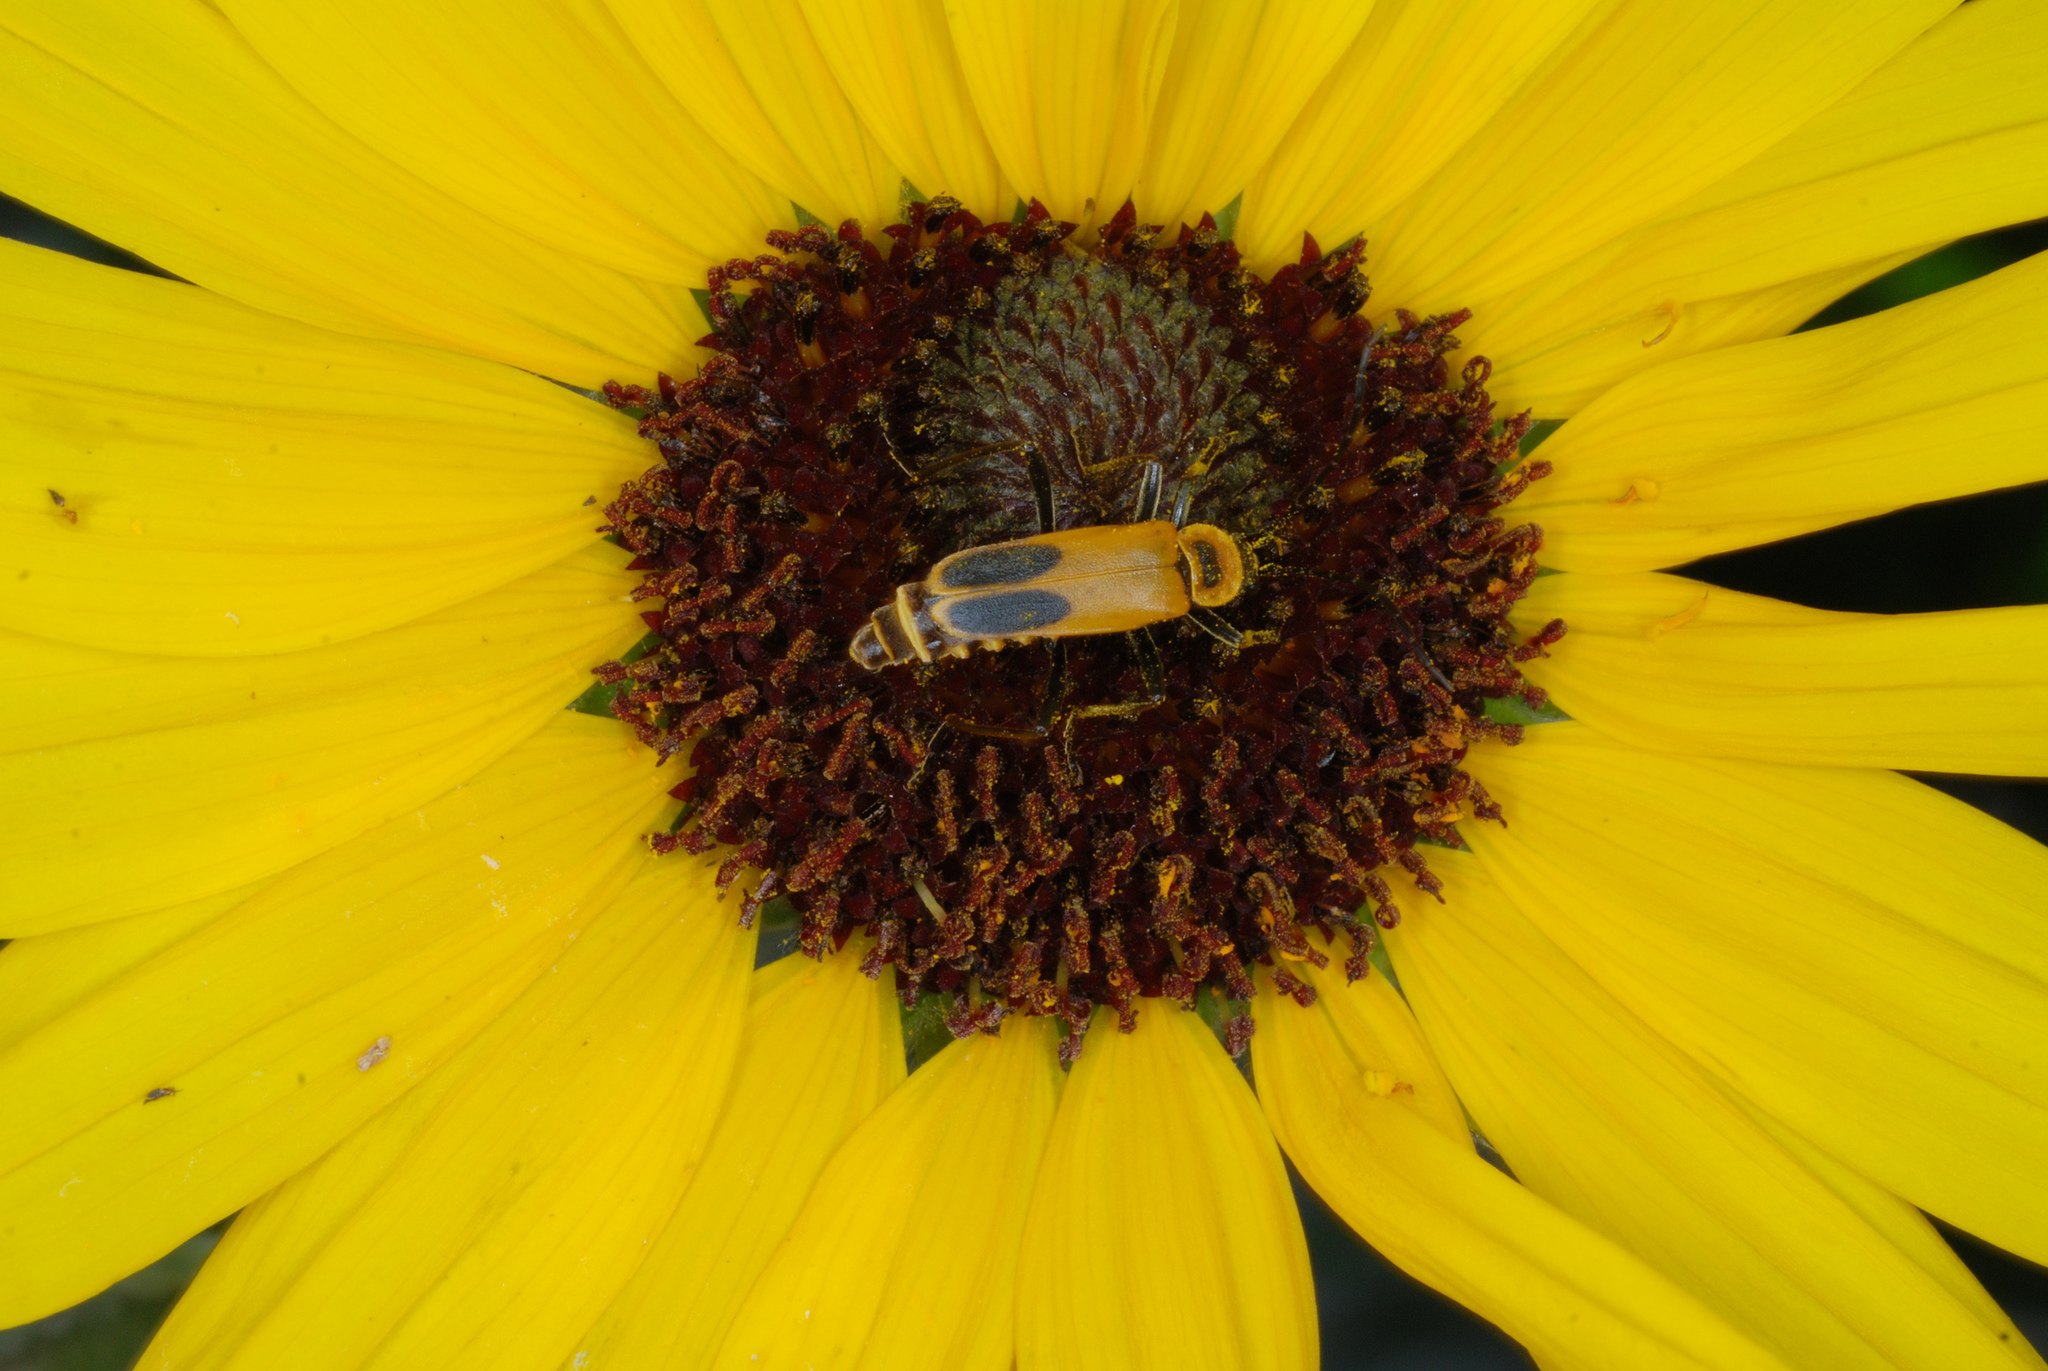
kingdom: Animalia
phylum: Arthropoda
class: Insecta
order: Coleoptera
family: Cantharidae
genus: Chauliognathus
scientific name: Chauliognathus pensylvanicus
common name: Goldenrod soldier beetle
